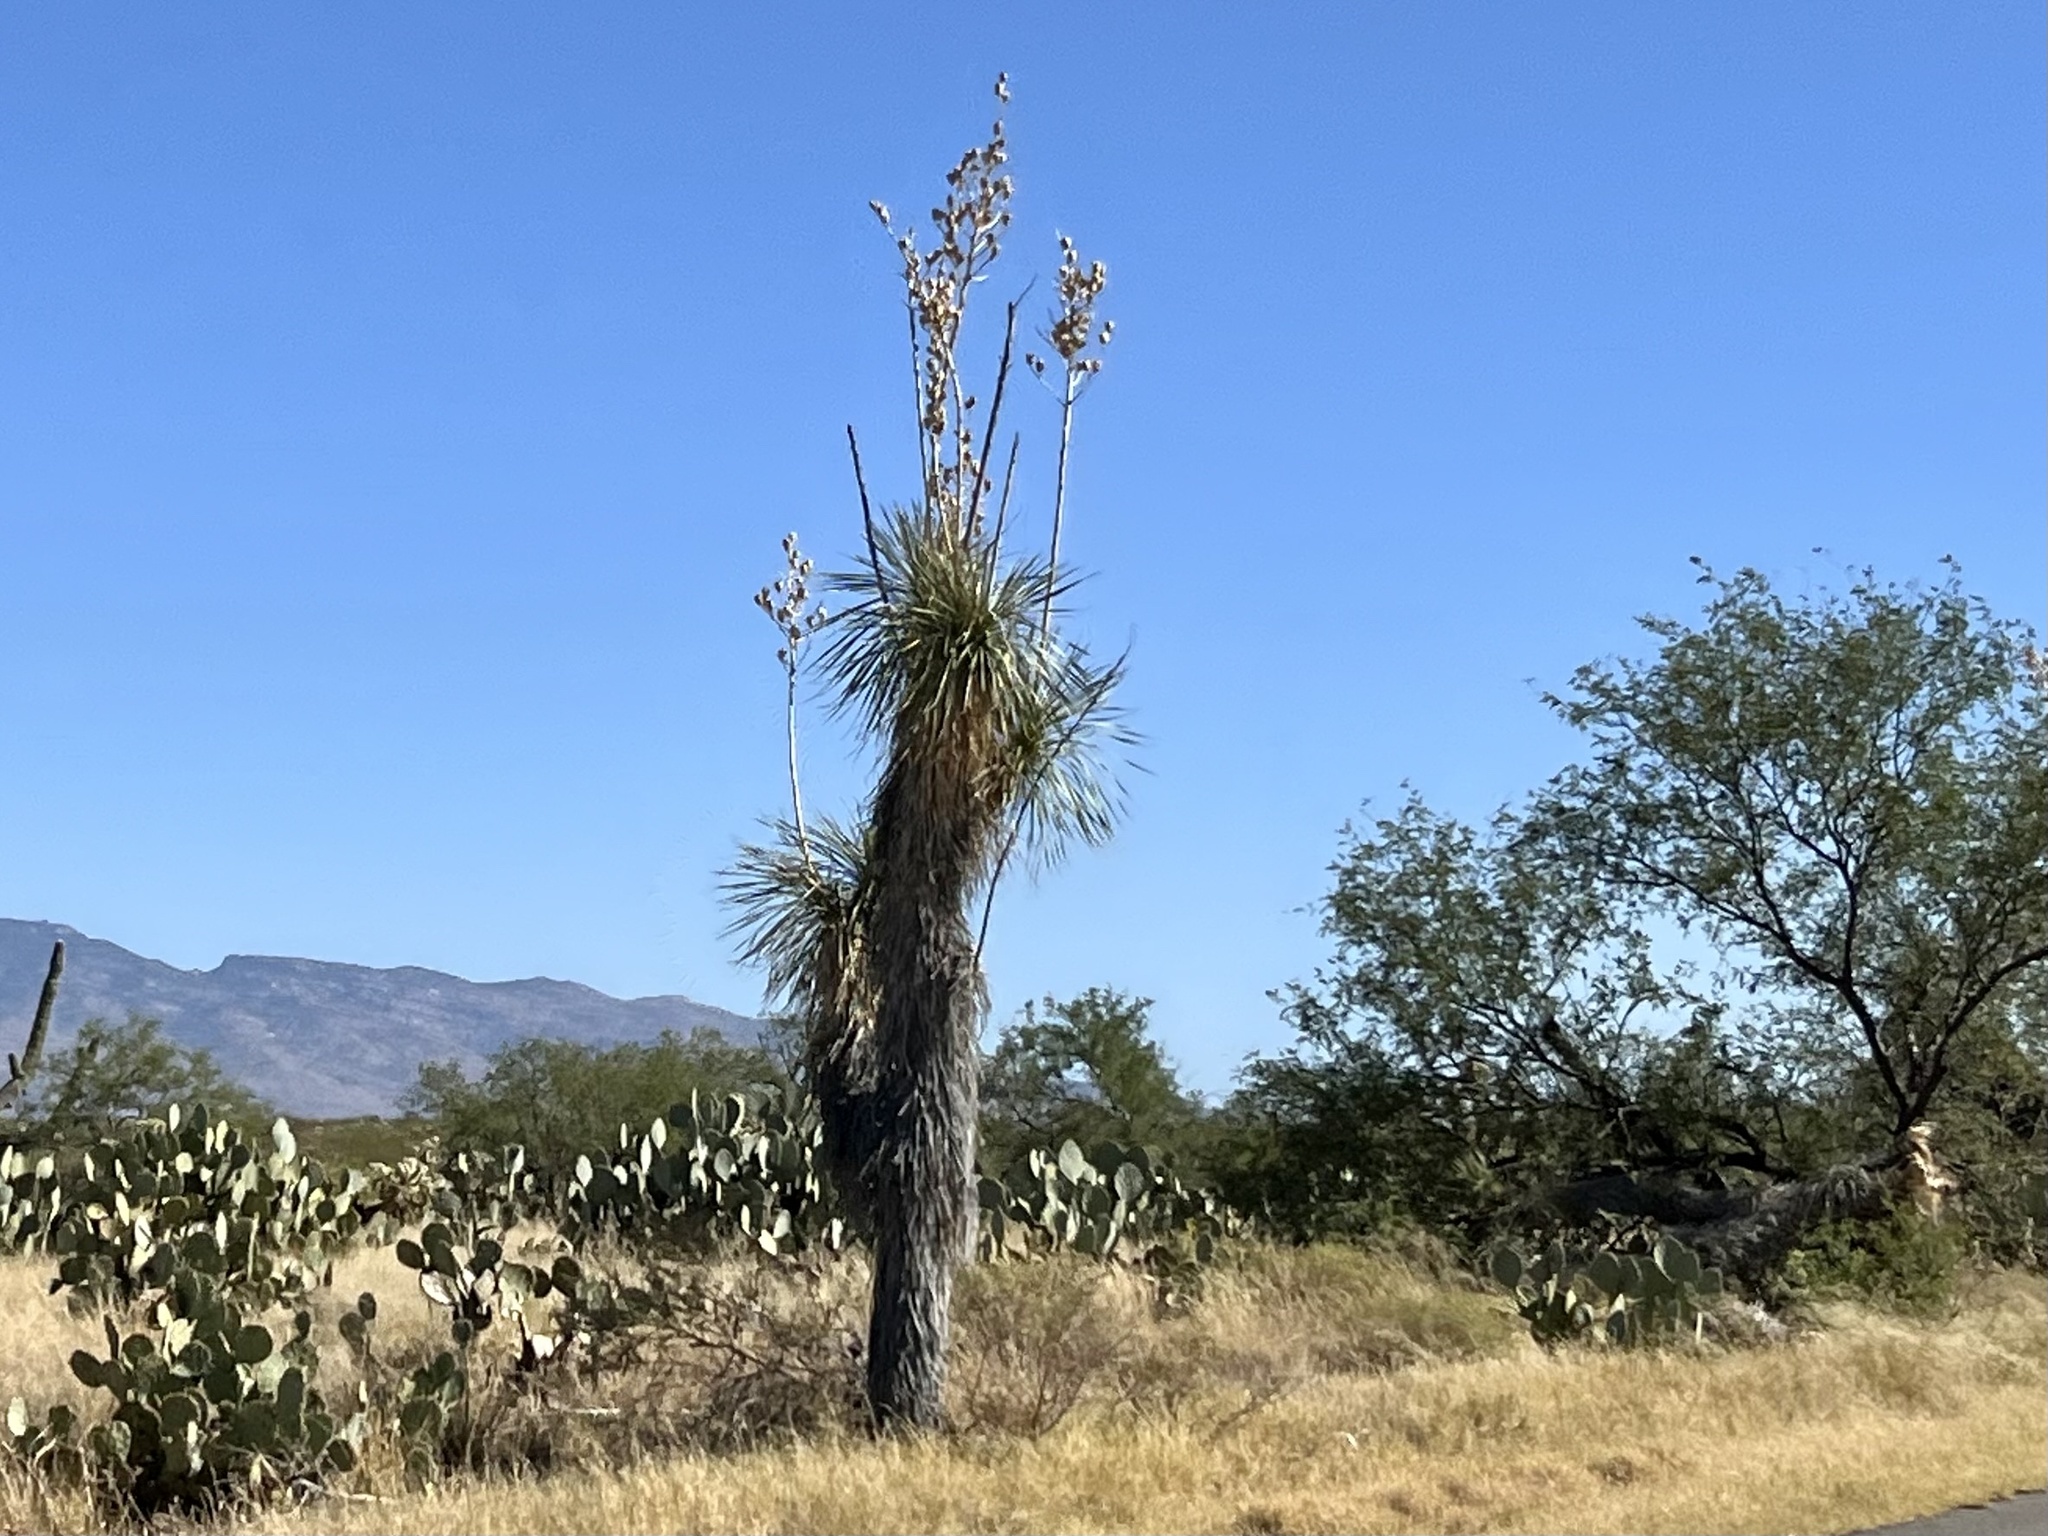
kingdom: Plantae
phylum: Tracheophyta
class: Liliopsida
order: Asparagales
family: Asparagaceae
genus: Yucca
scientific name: Yucca elata
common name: Palmella
